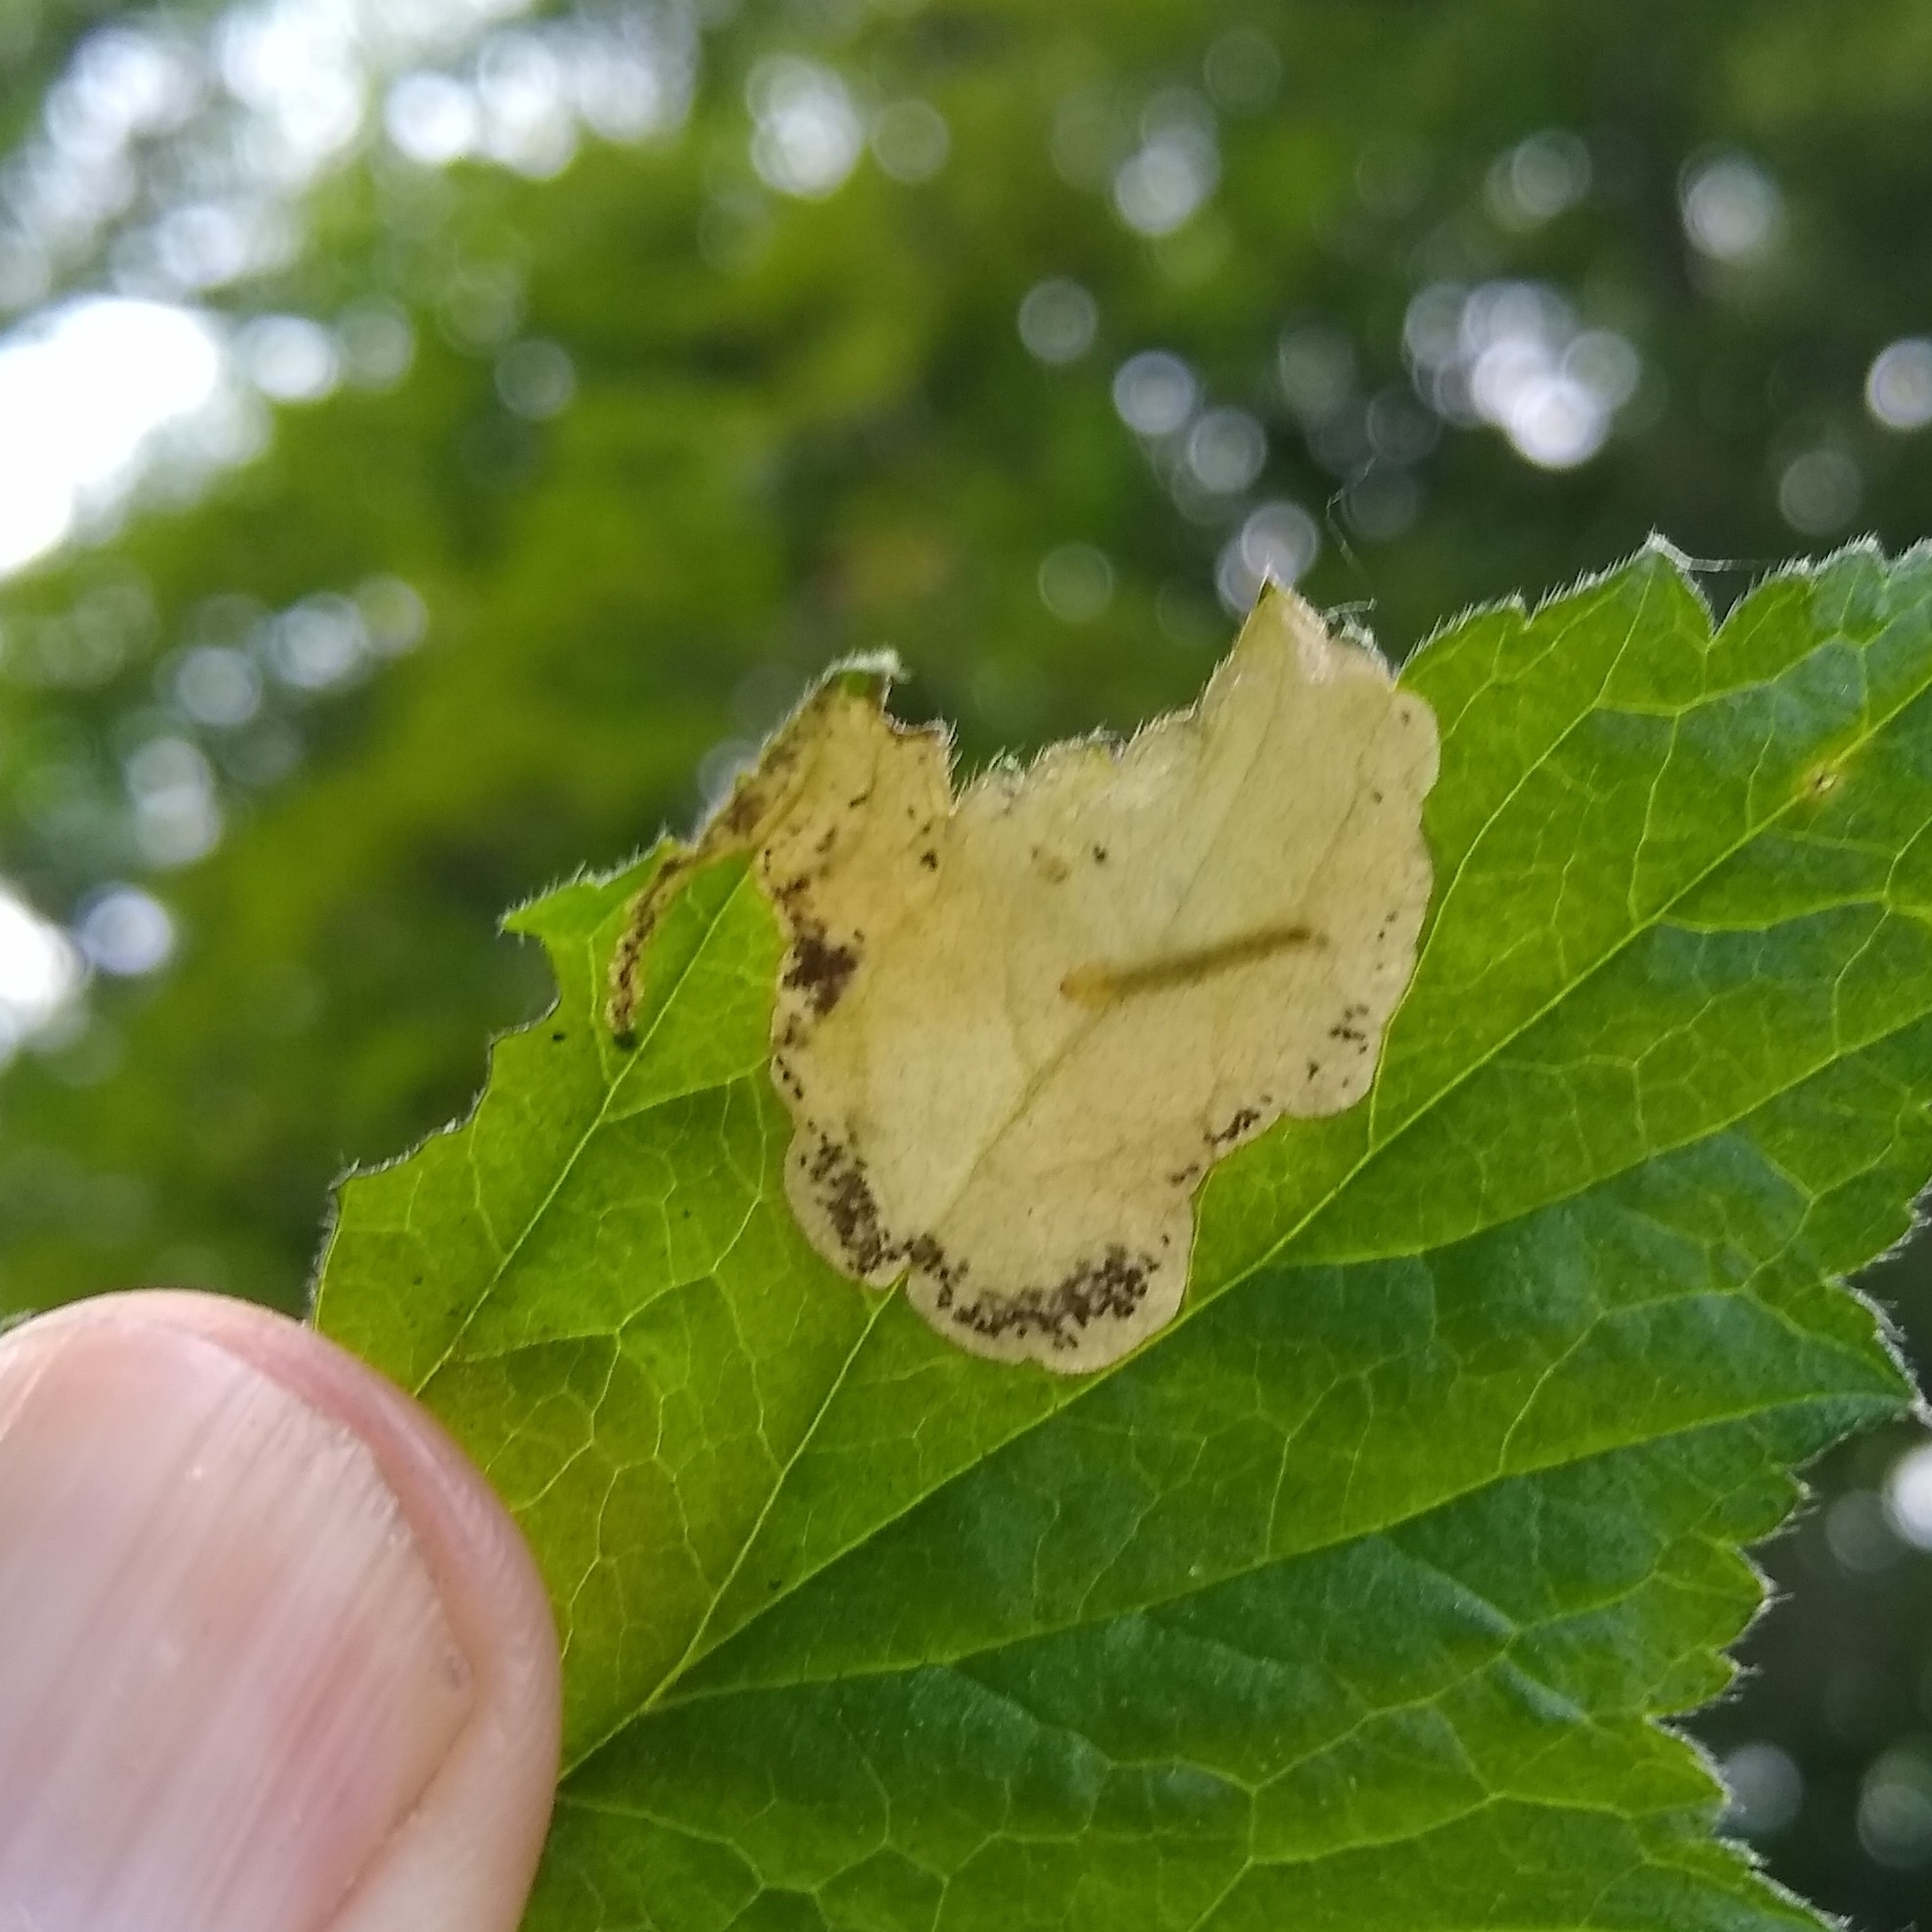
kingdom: Animalia
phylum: Arthropoda
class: Insecta
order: Hymenoptera
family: Tenthredinidae
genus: Metallus
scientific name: Metallus lanceolatus
